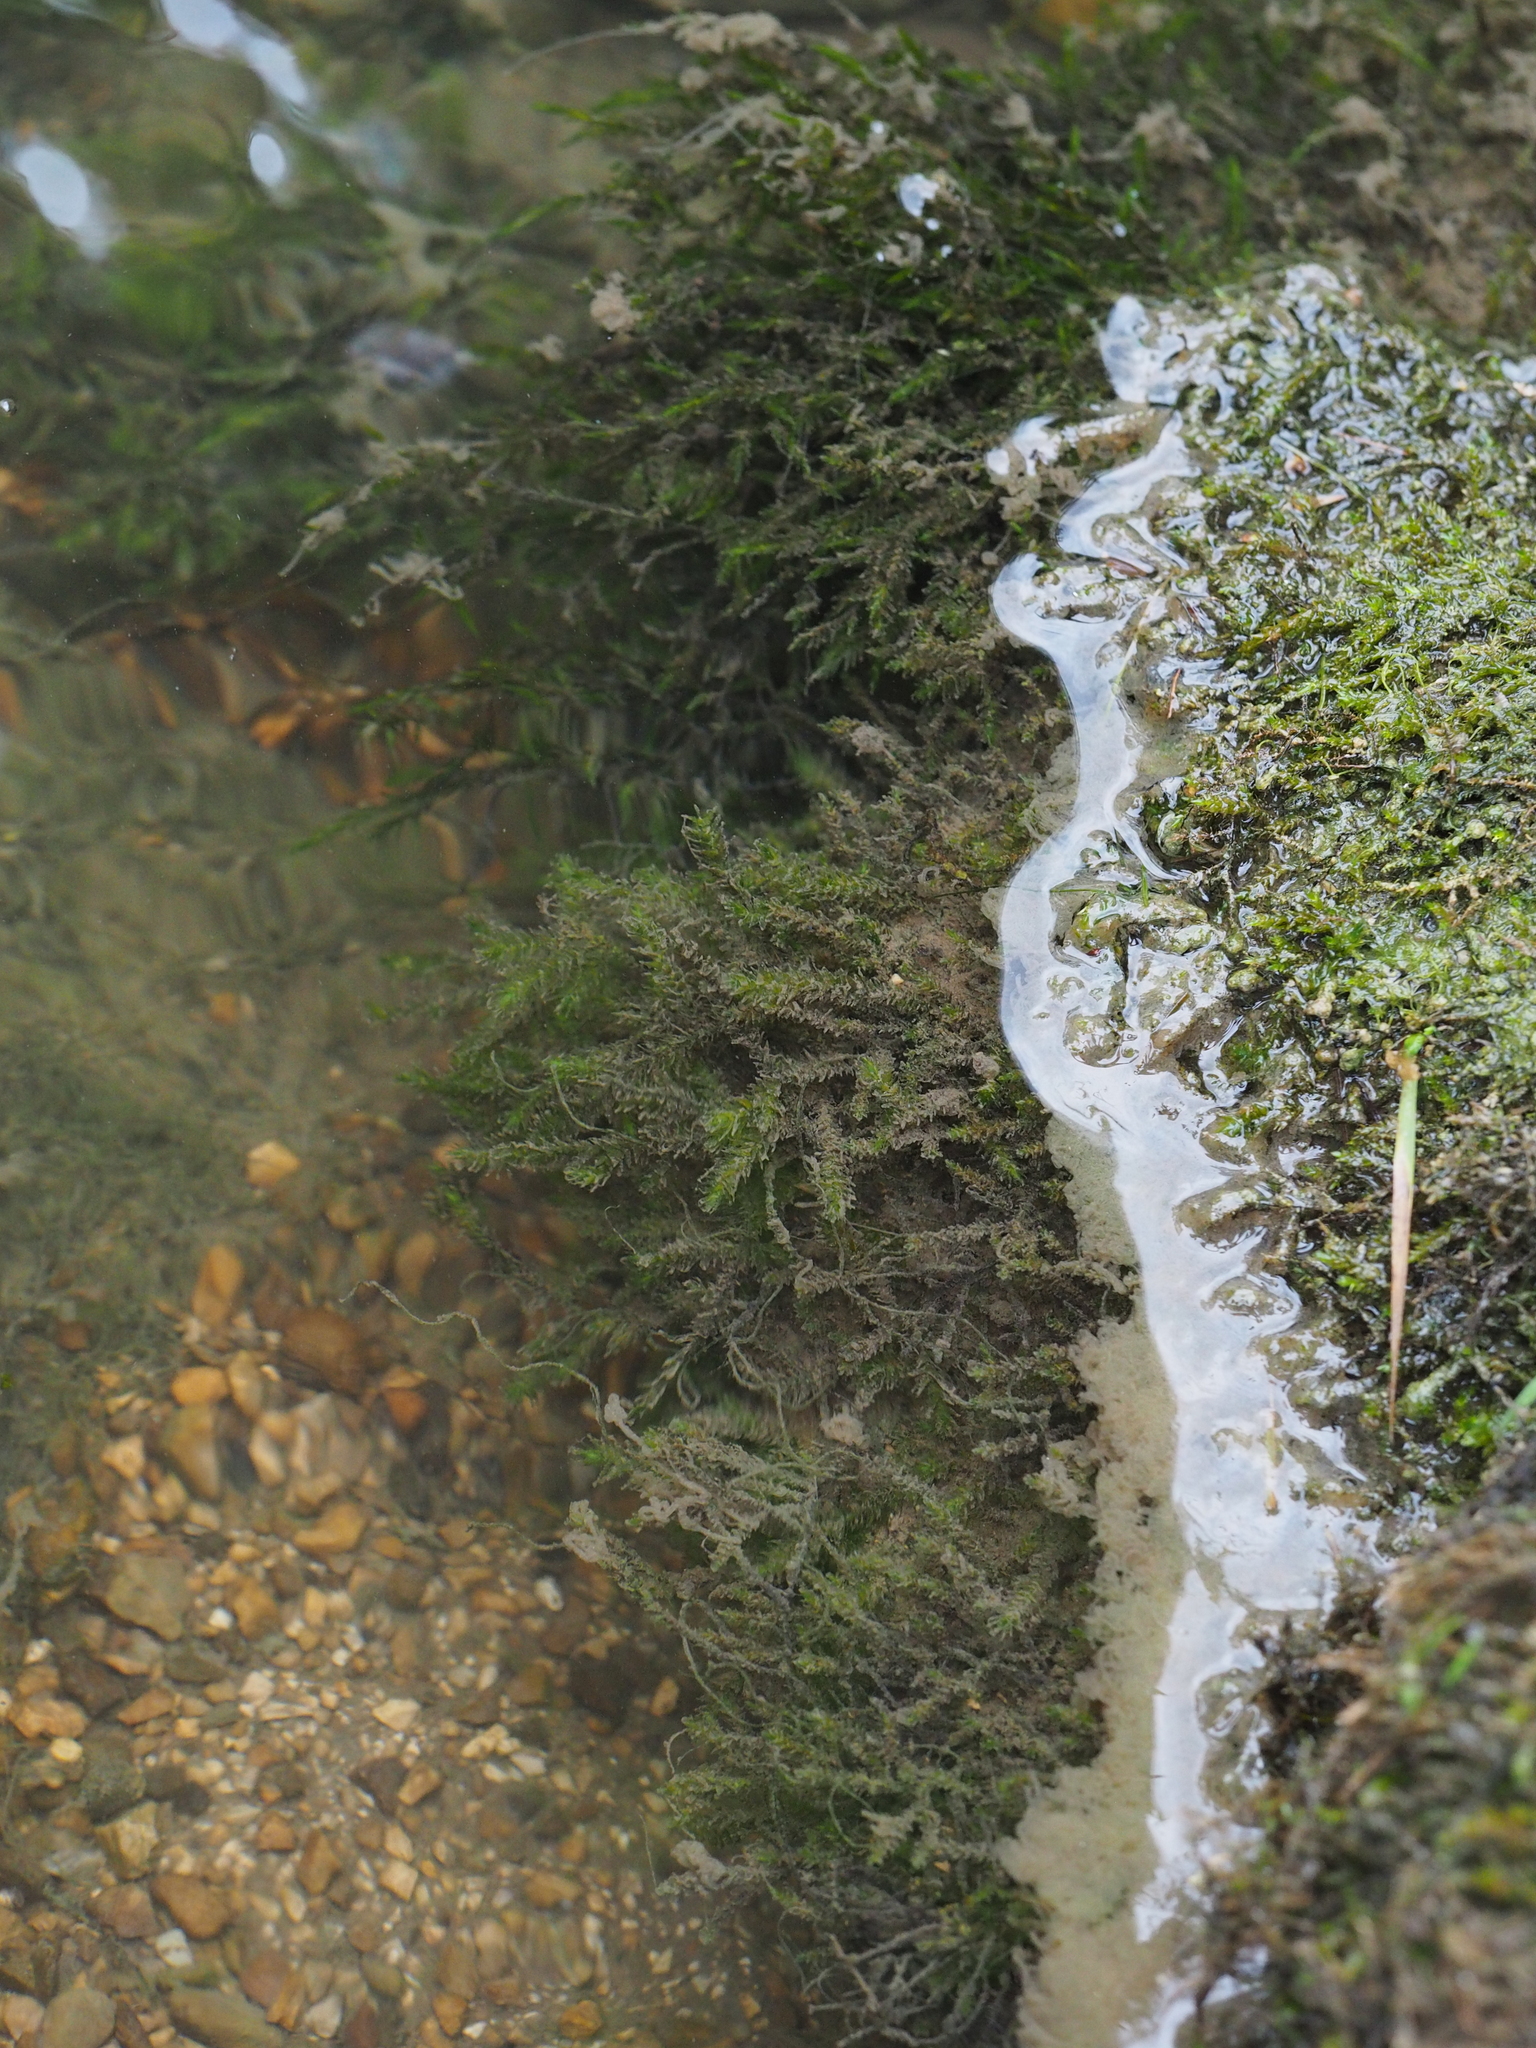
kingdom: Plantae
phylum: Bryophyta
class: Bryopsida
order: Hypnales
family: Brachytheciaceae
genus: Rhynchostegium
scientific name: Rhynchostegium riparioides
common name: Platyhypnidium moss
